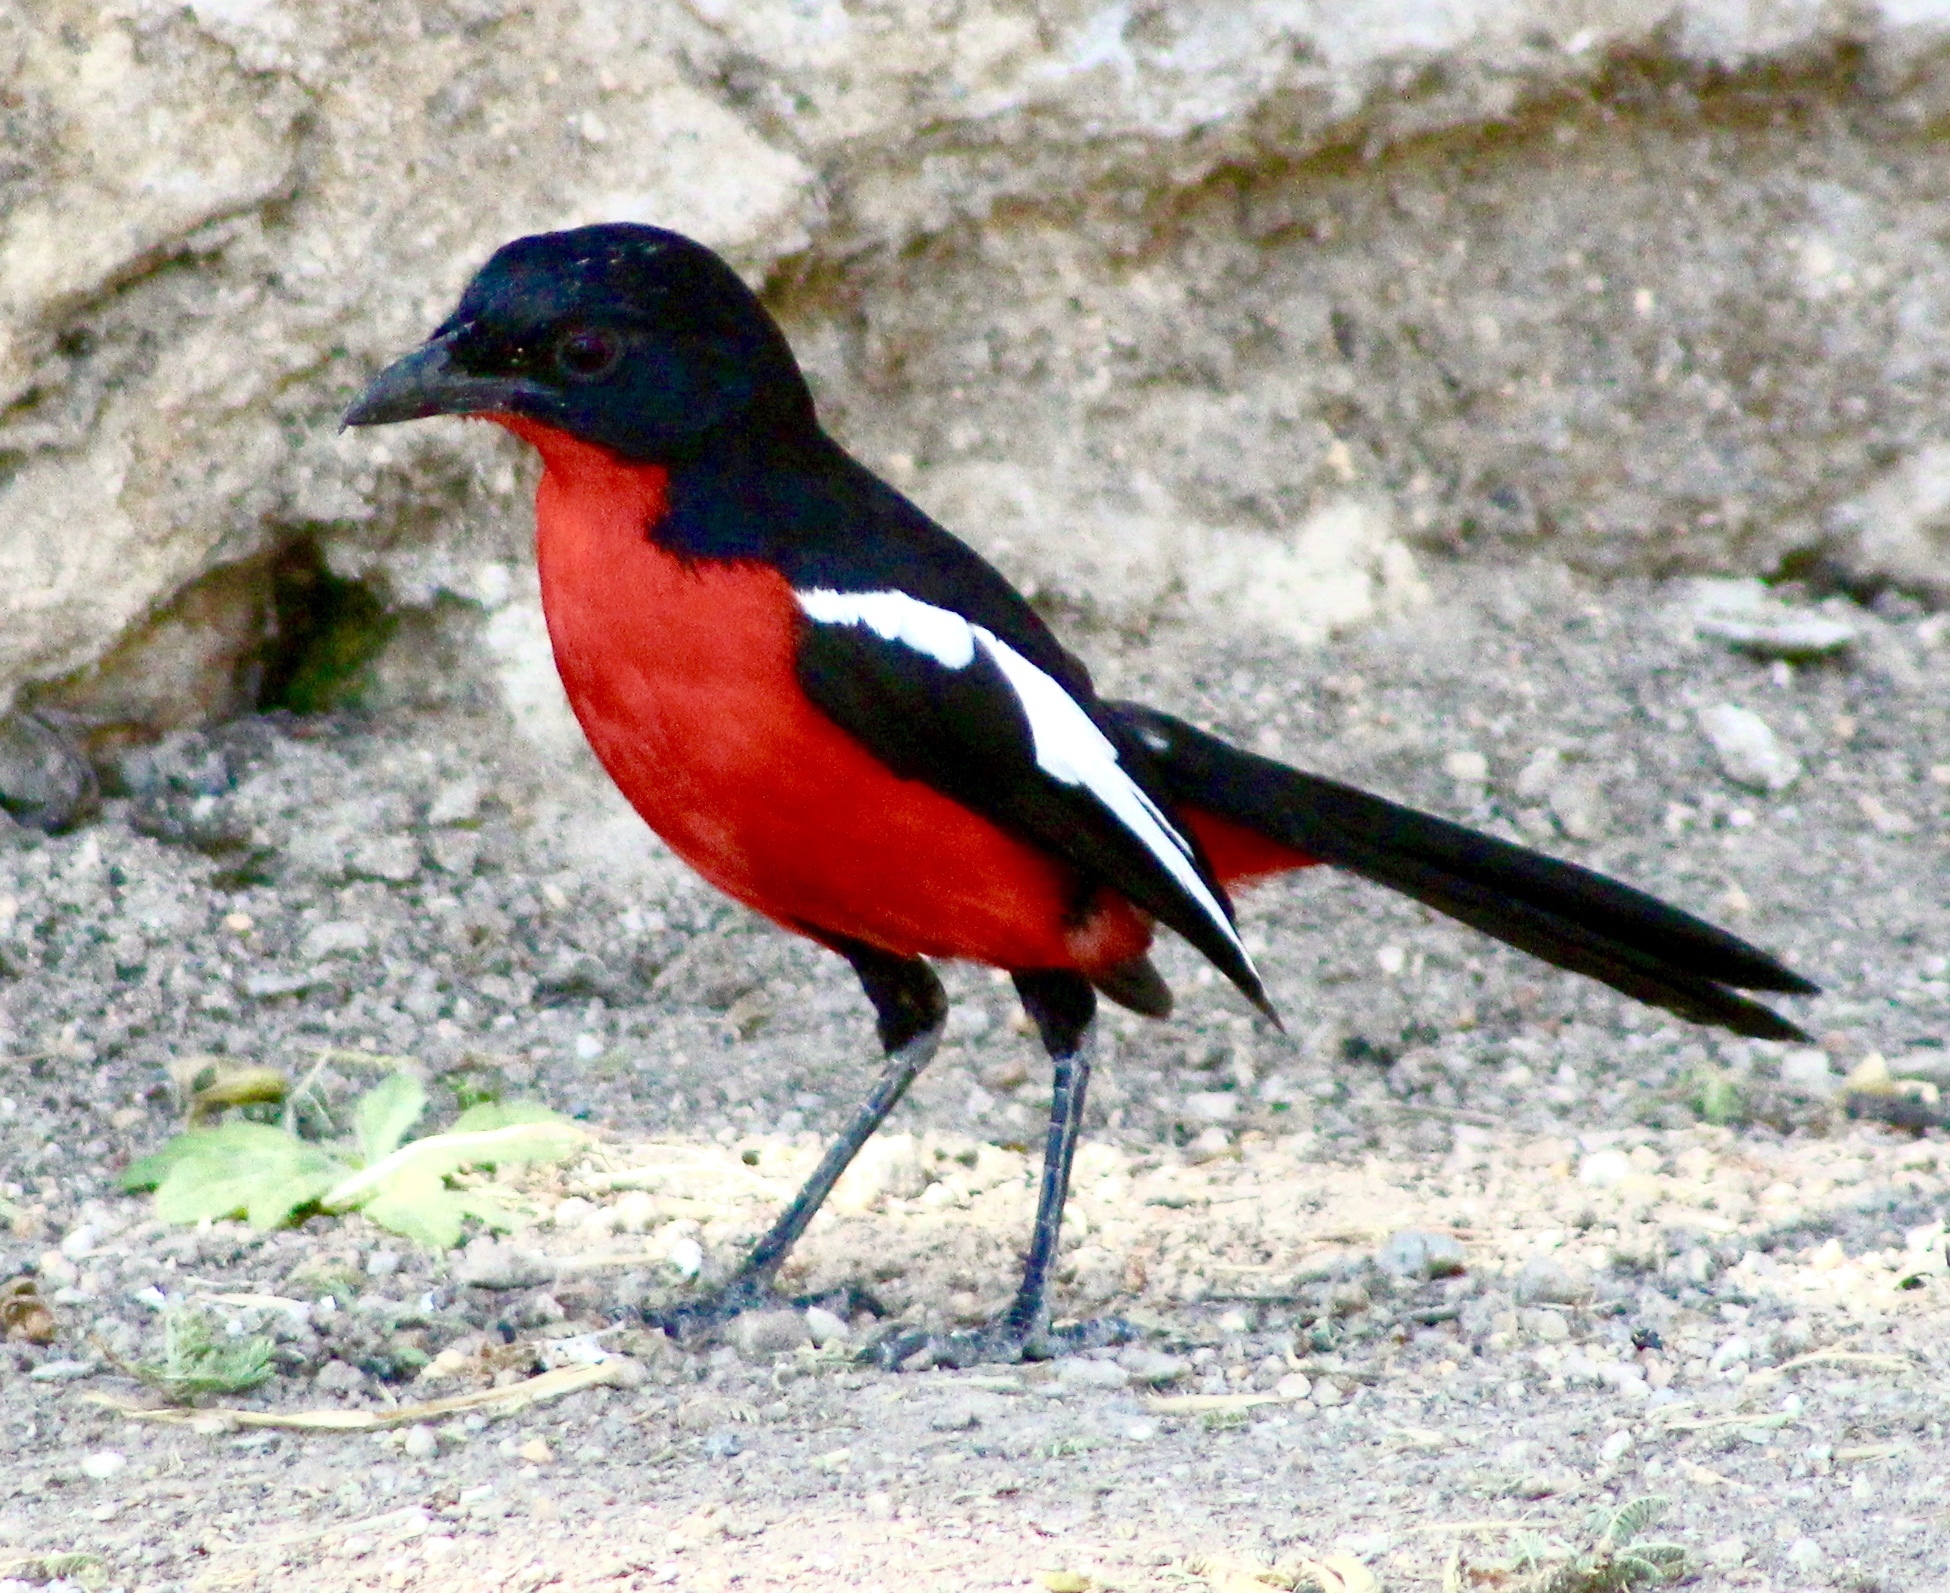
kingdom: Animalia
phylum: Chordata
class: Aves
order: Passeriformes
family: Malaconotidae
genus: Laniarius
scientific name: Laniarius atrococcineus
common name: Crimson-breasted shrike
